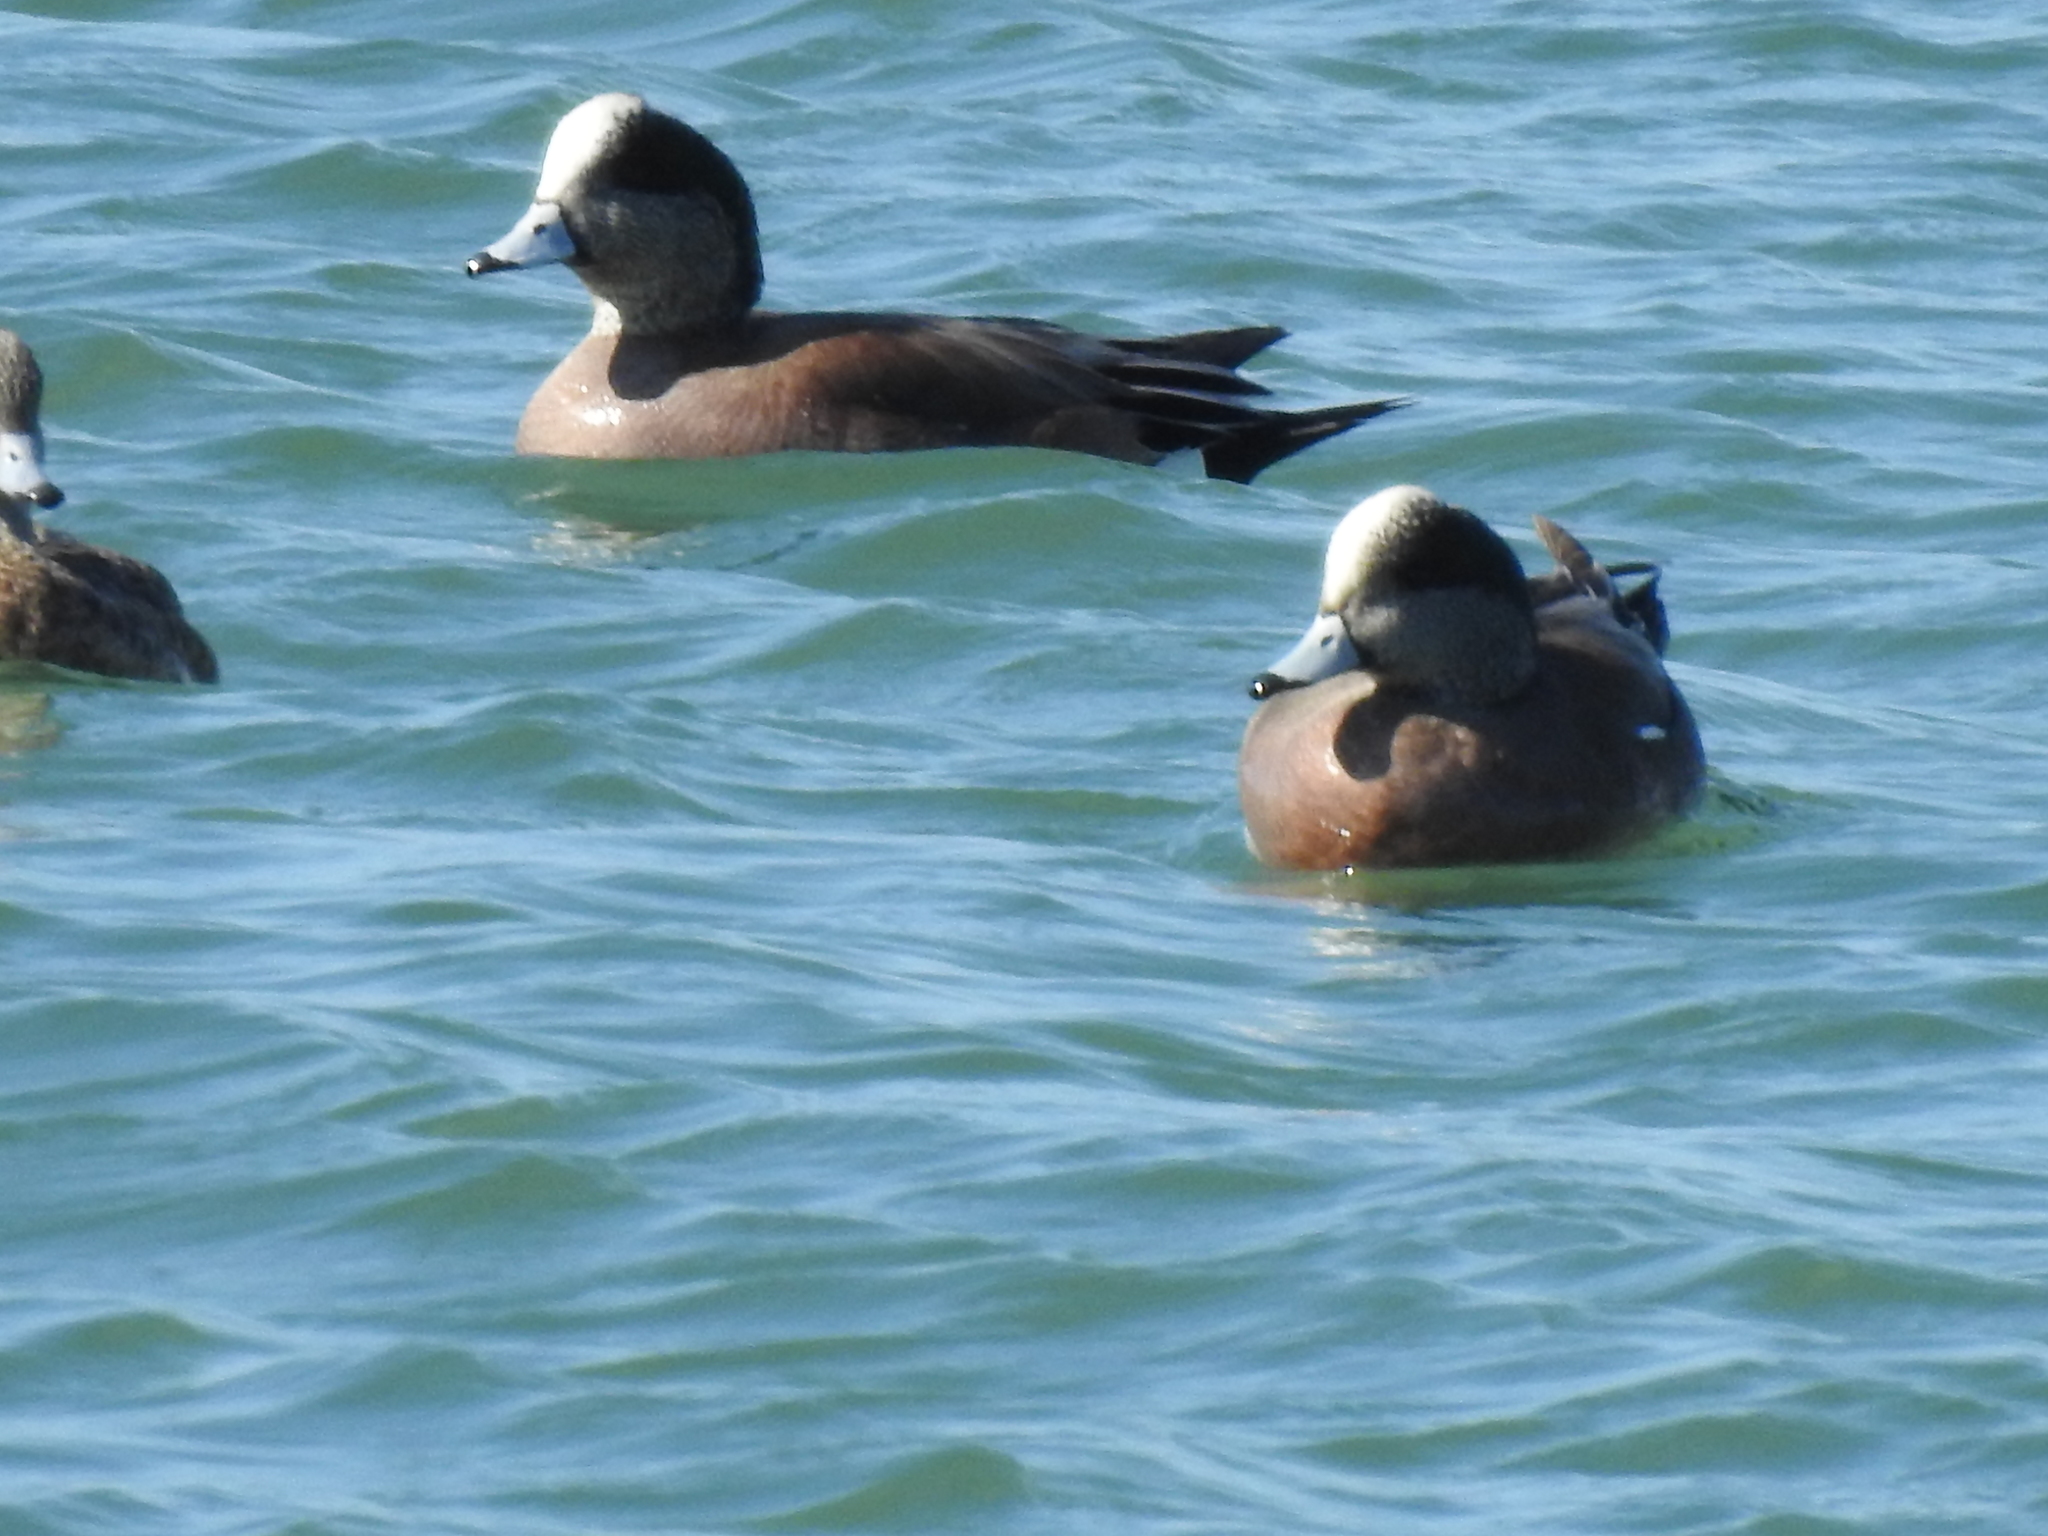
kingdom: Animalia
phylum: Chordata
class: Aves
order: Anseriformes
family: Anatidae
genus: Mareca
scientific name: Mareca americana
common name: American wigeon
